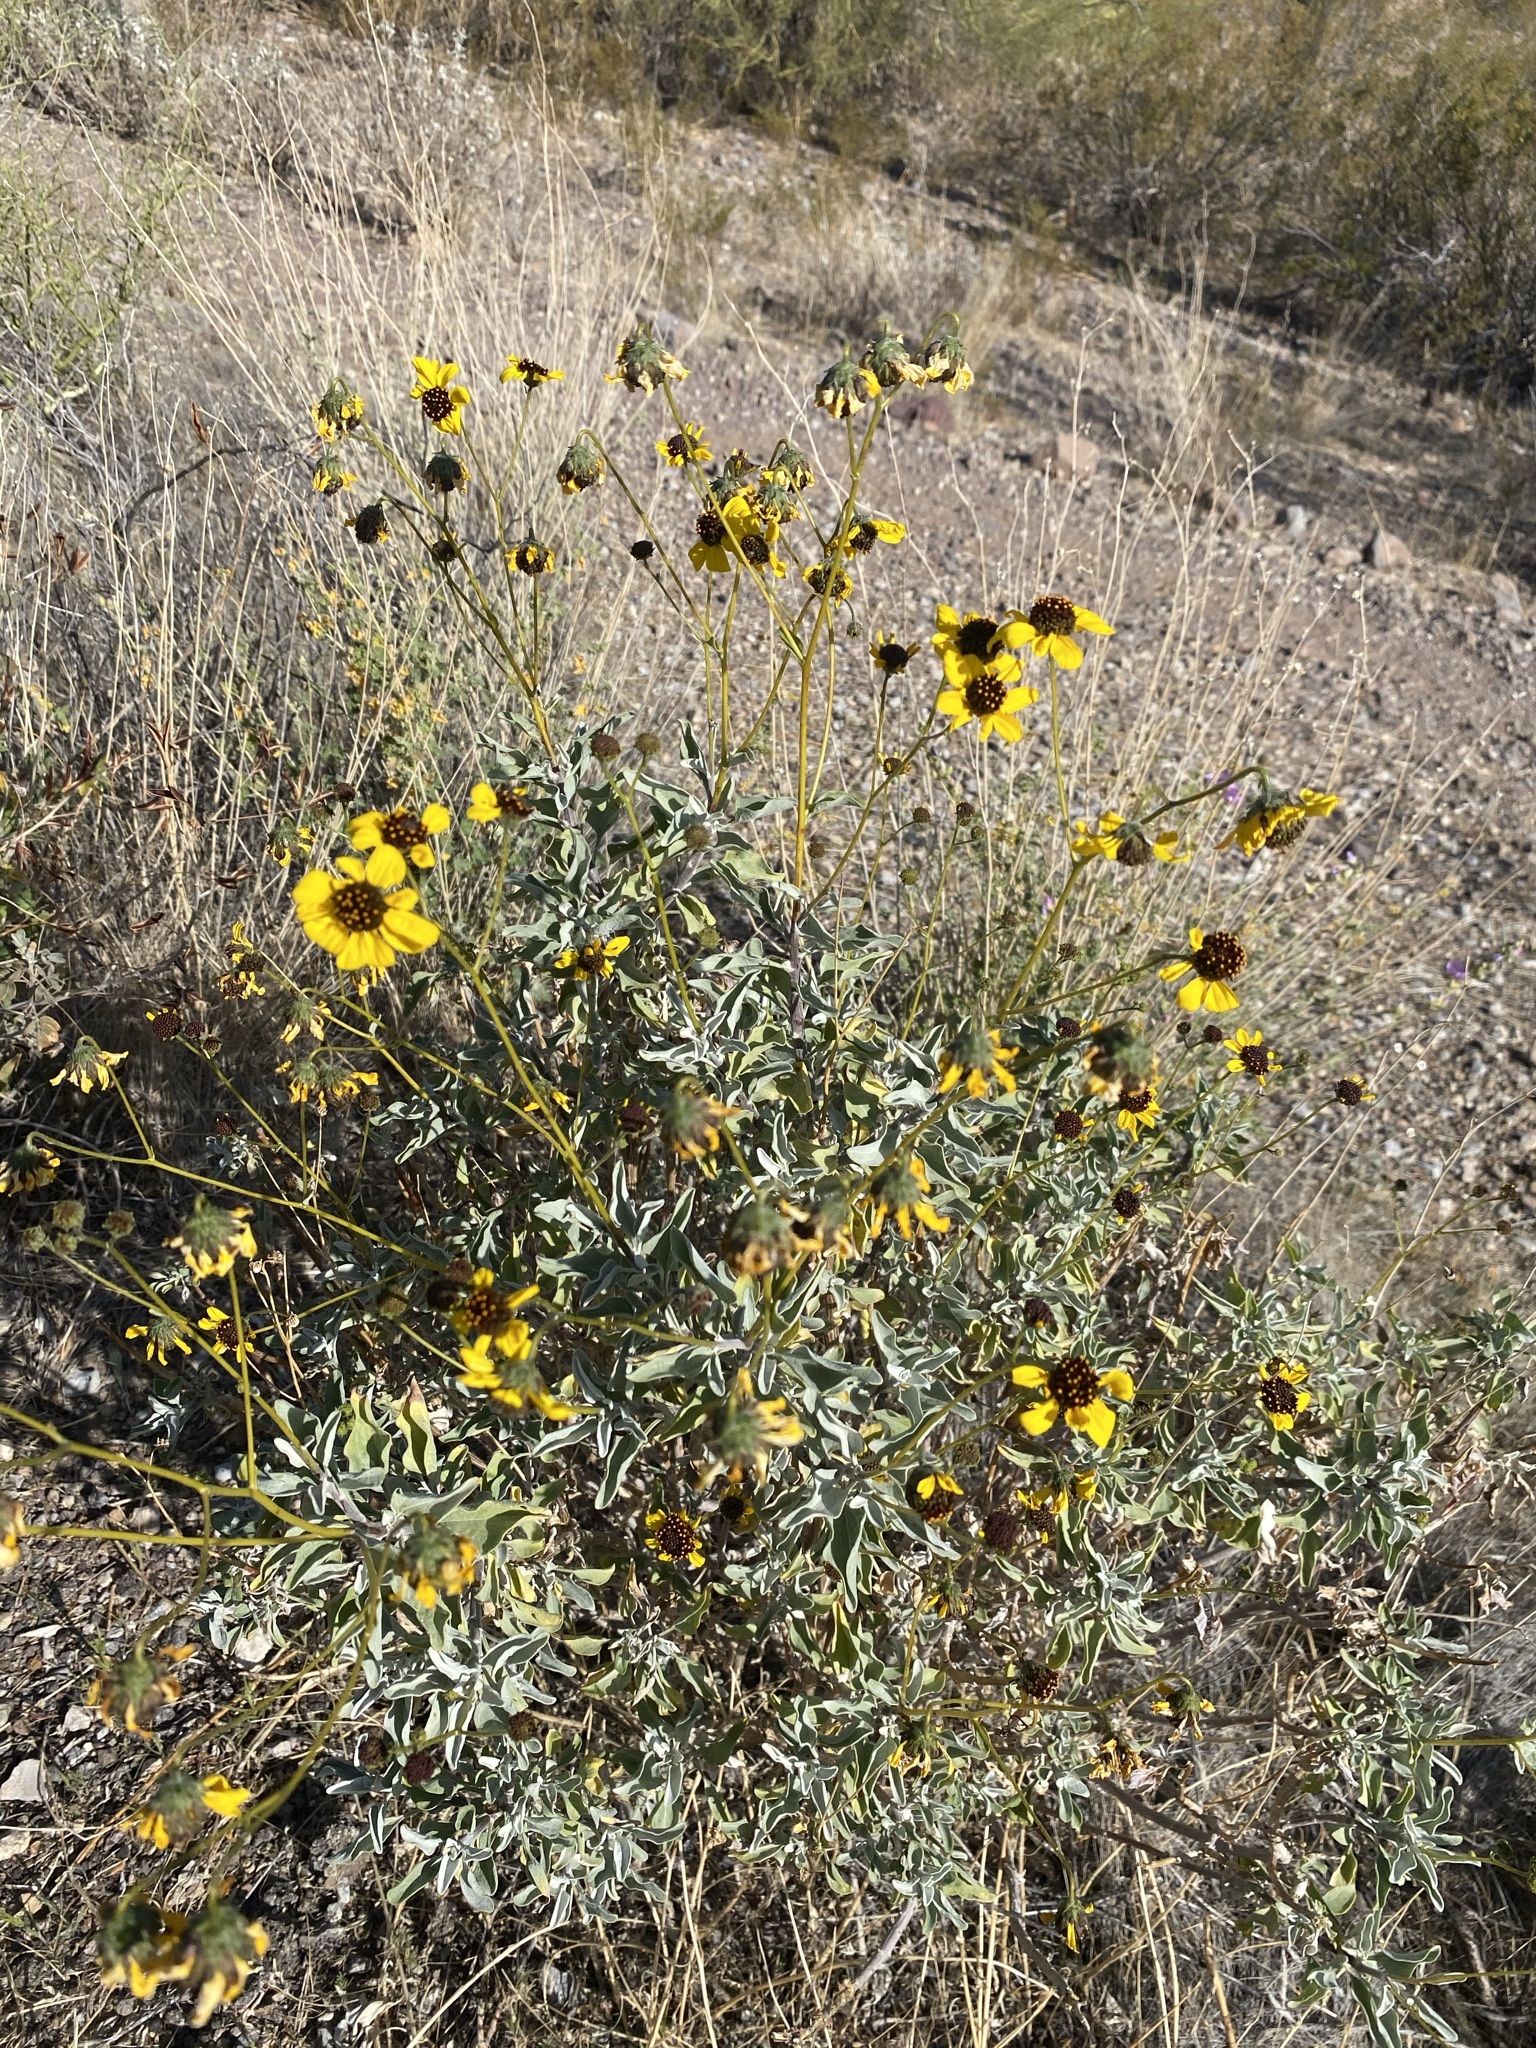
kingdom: Plantae
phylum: Tracheophyta
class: Magnoliopsida
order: Asterales
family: Asteraceae
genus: Encelia
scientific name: Encelia farinosa
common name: Brittlebush
